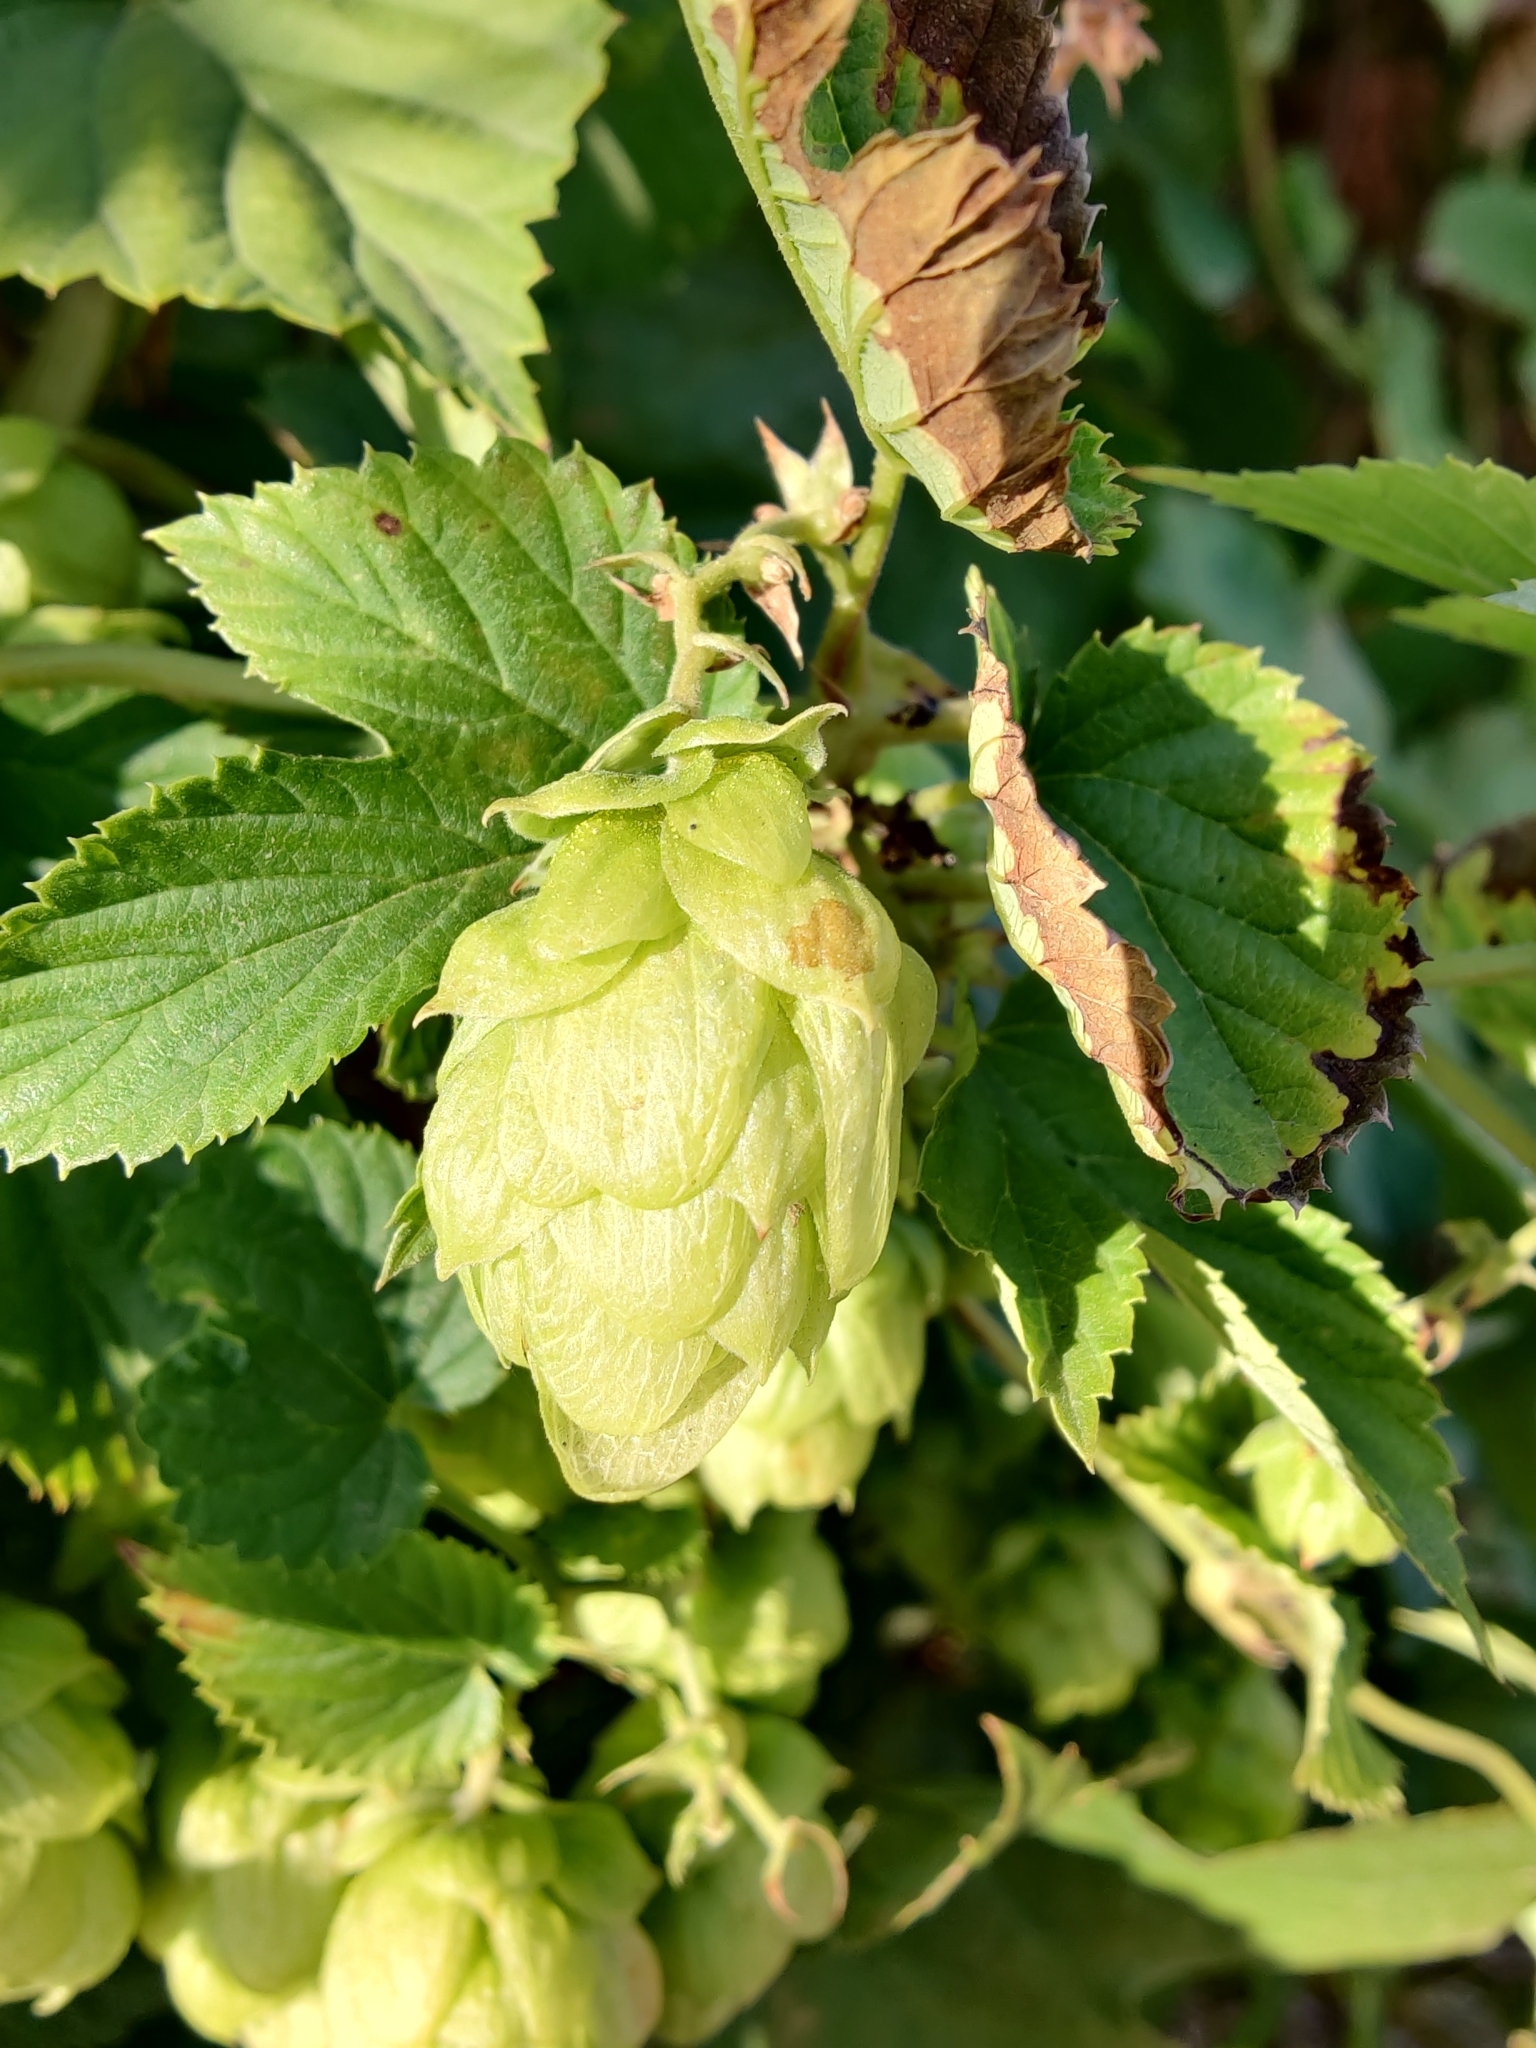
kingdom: Plantae
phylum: Tracheophyta
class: Magnoliopsida
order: Rosales
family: Cannabaceae
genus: Humulus
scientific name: Humulus lupulus
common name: Hop
